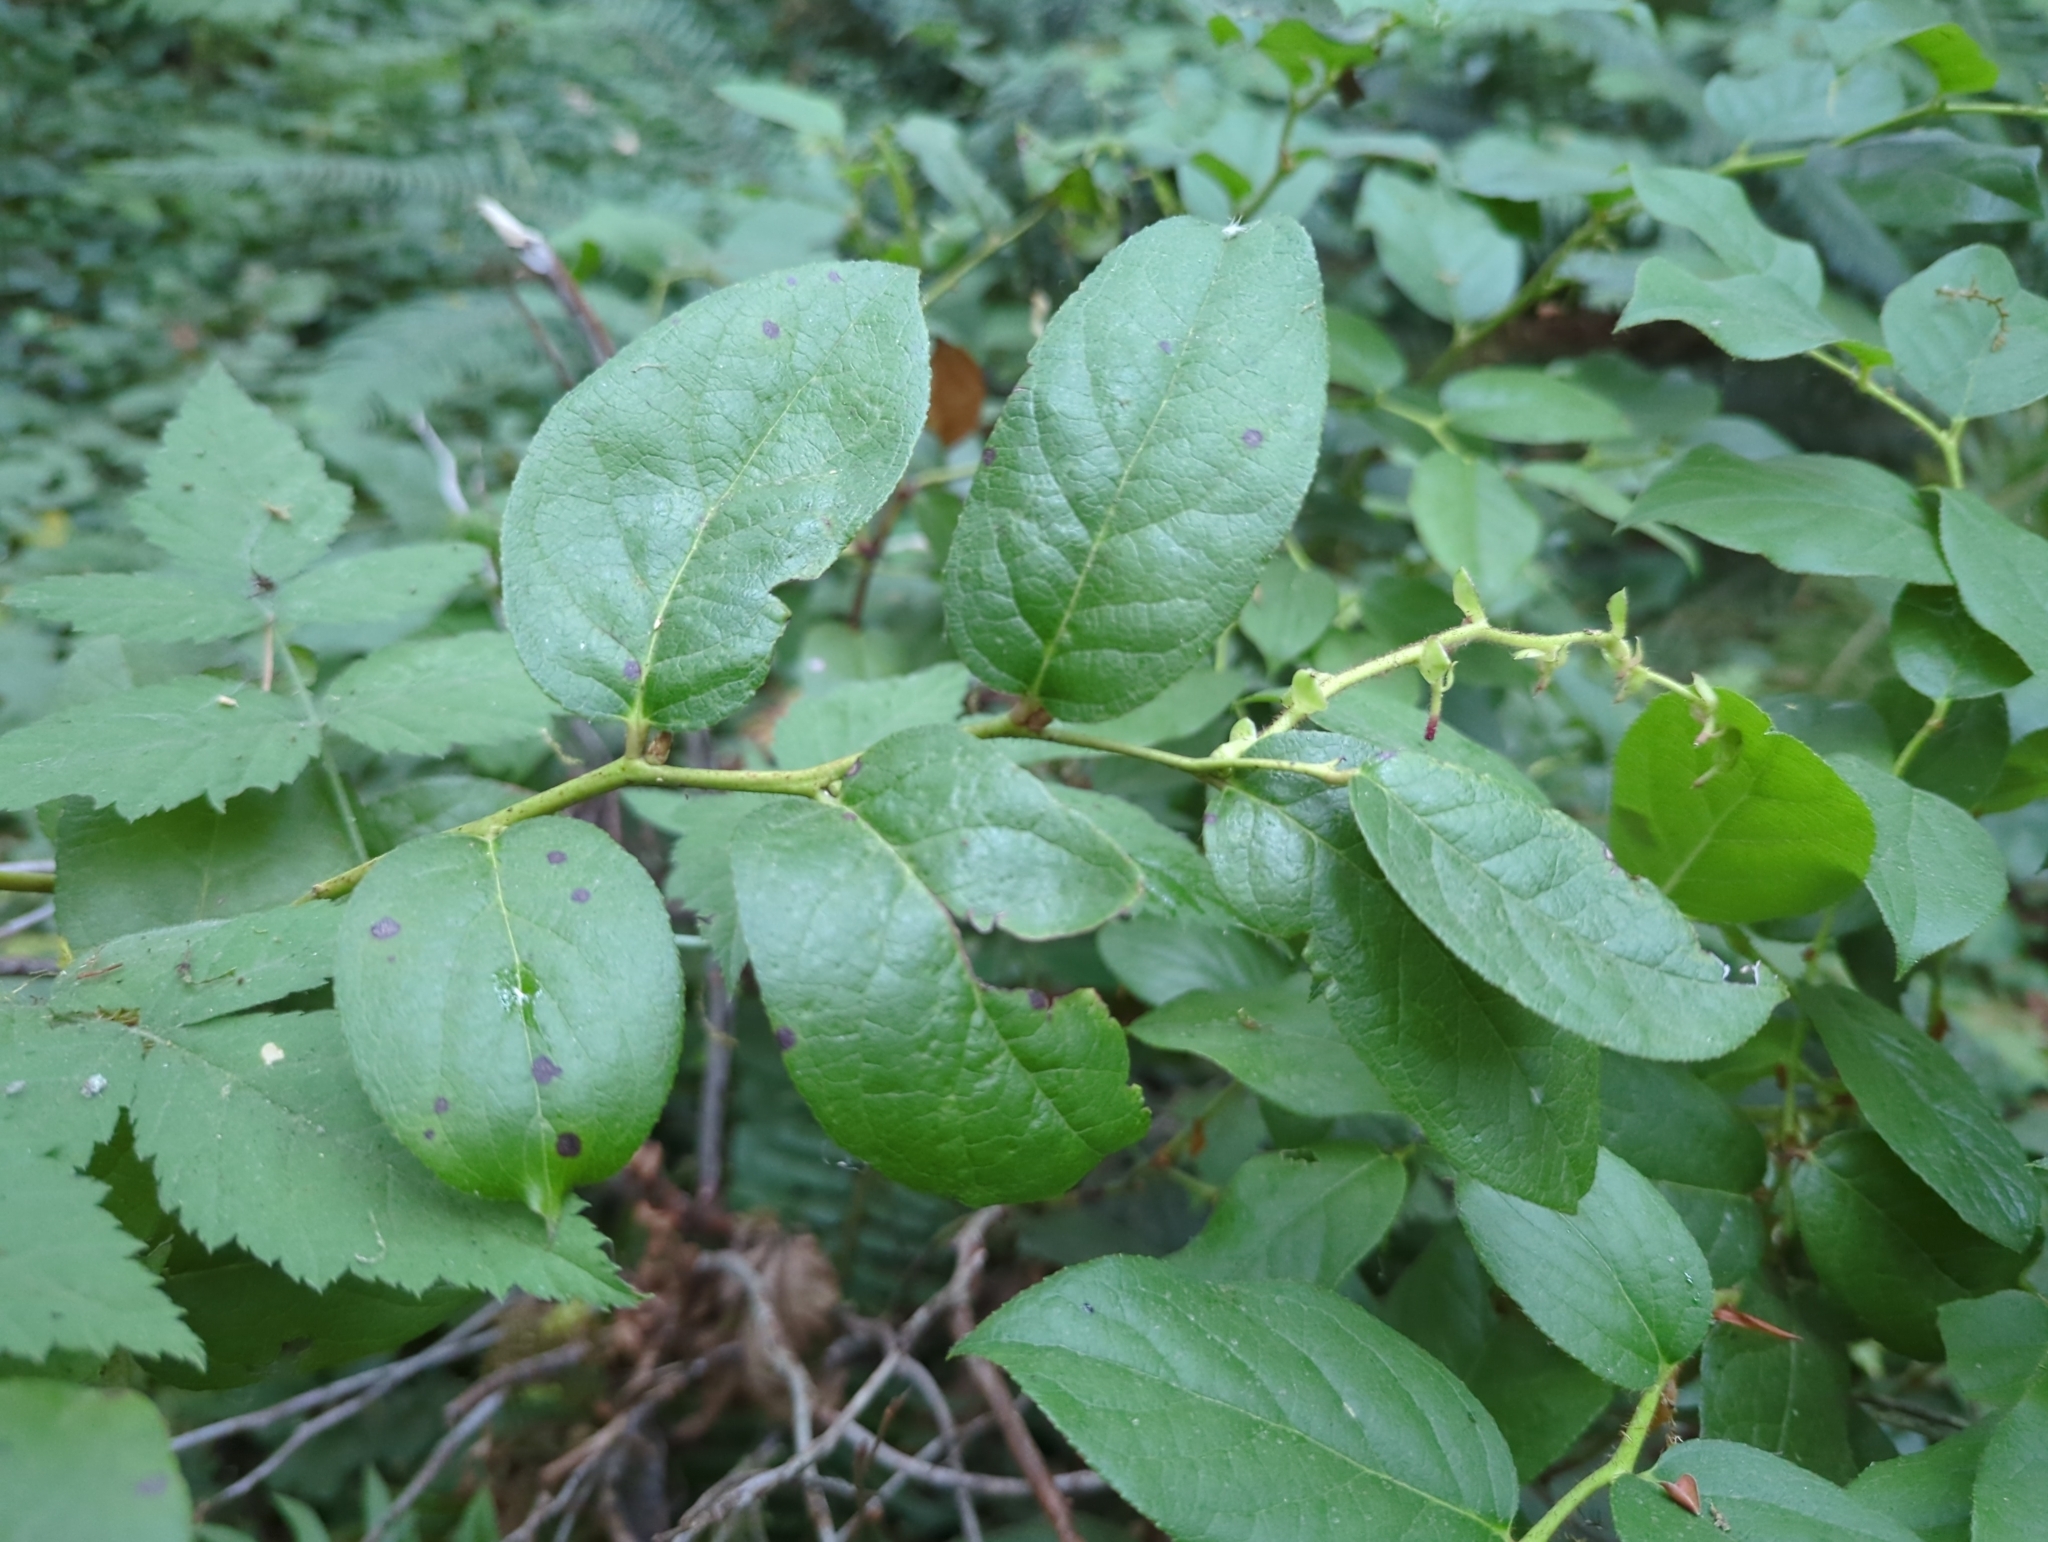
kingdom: Plantae
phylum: Tracheophyta
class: Magnoliopsida
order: Ericales
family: Ericaceae
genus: Gaultheria
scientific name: Gaultheria shallon
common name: Shallon
